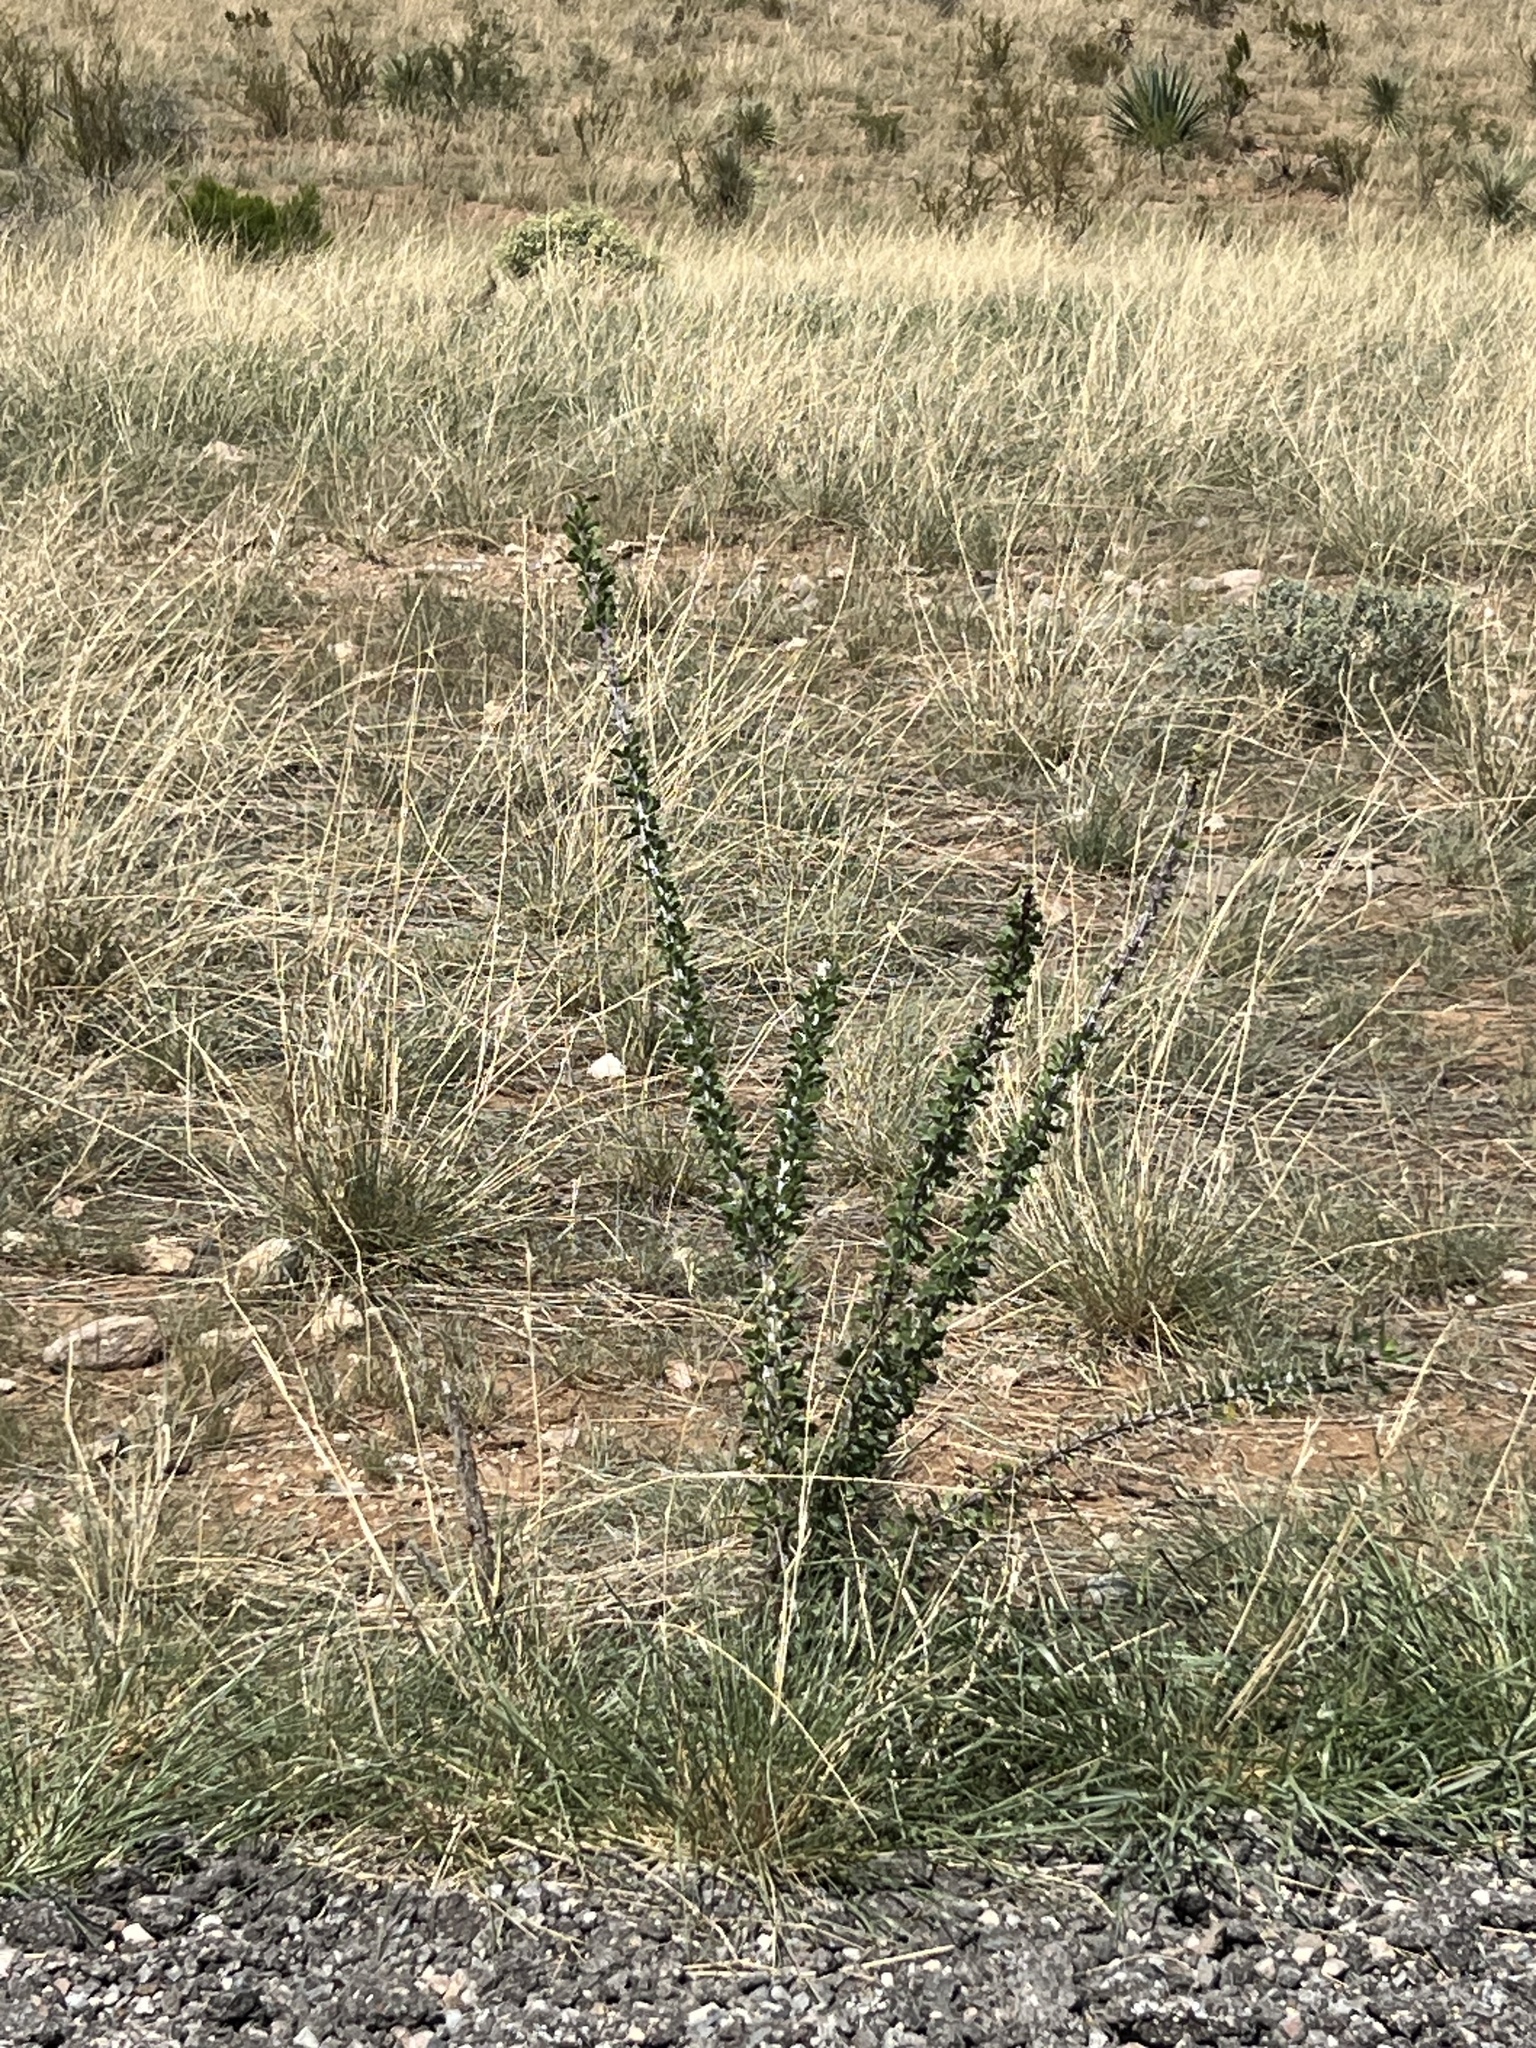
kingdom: Plantae
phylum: Tracheophyta
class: Magnoliopsida
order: Ericales
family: Fouquieriaceae
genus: Fouquieria
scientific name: Fouquieria splendens
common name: Vine-cactus
